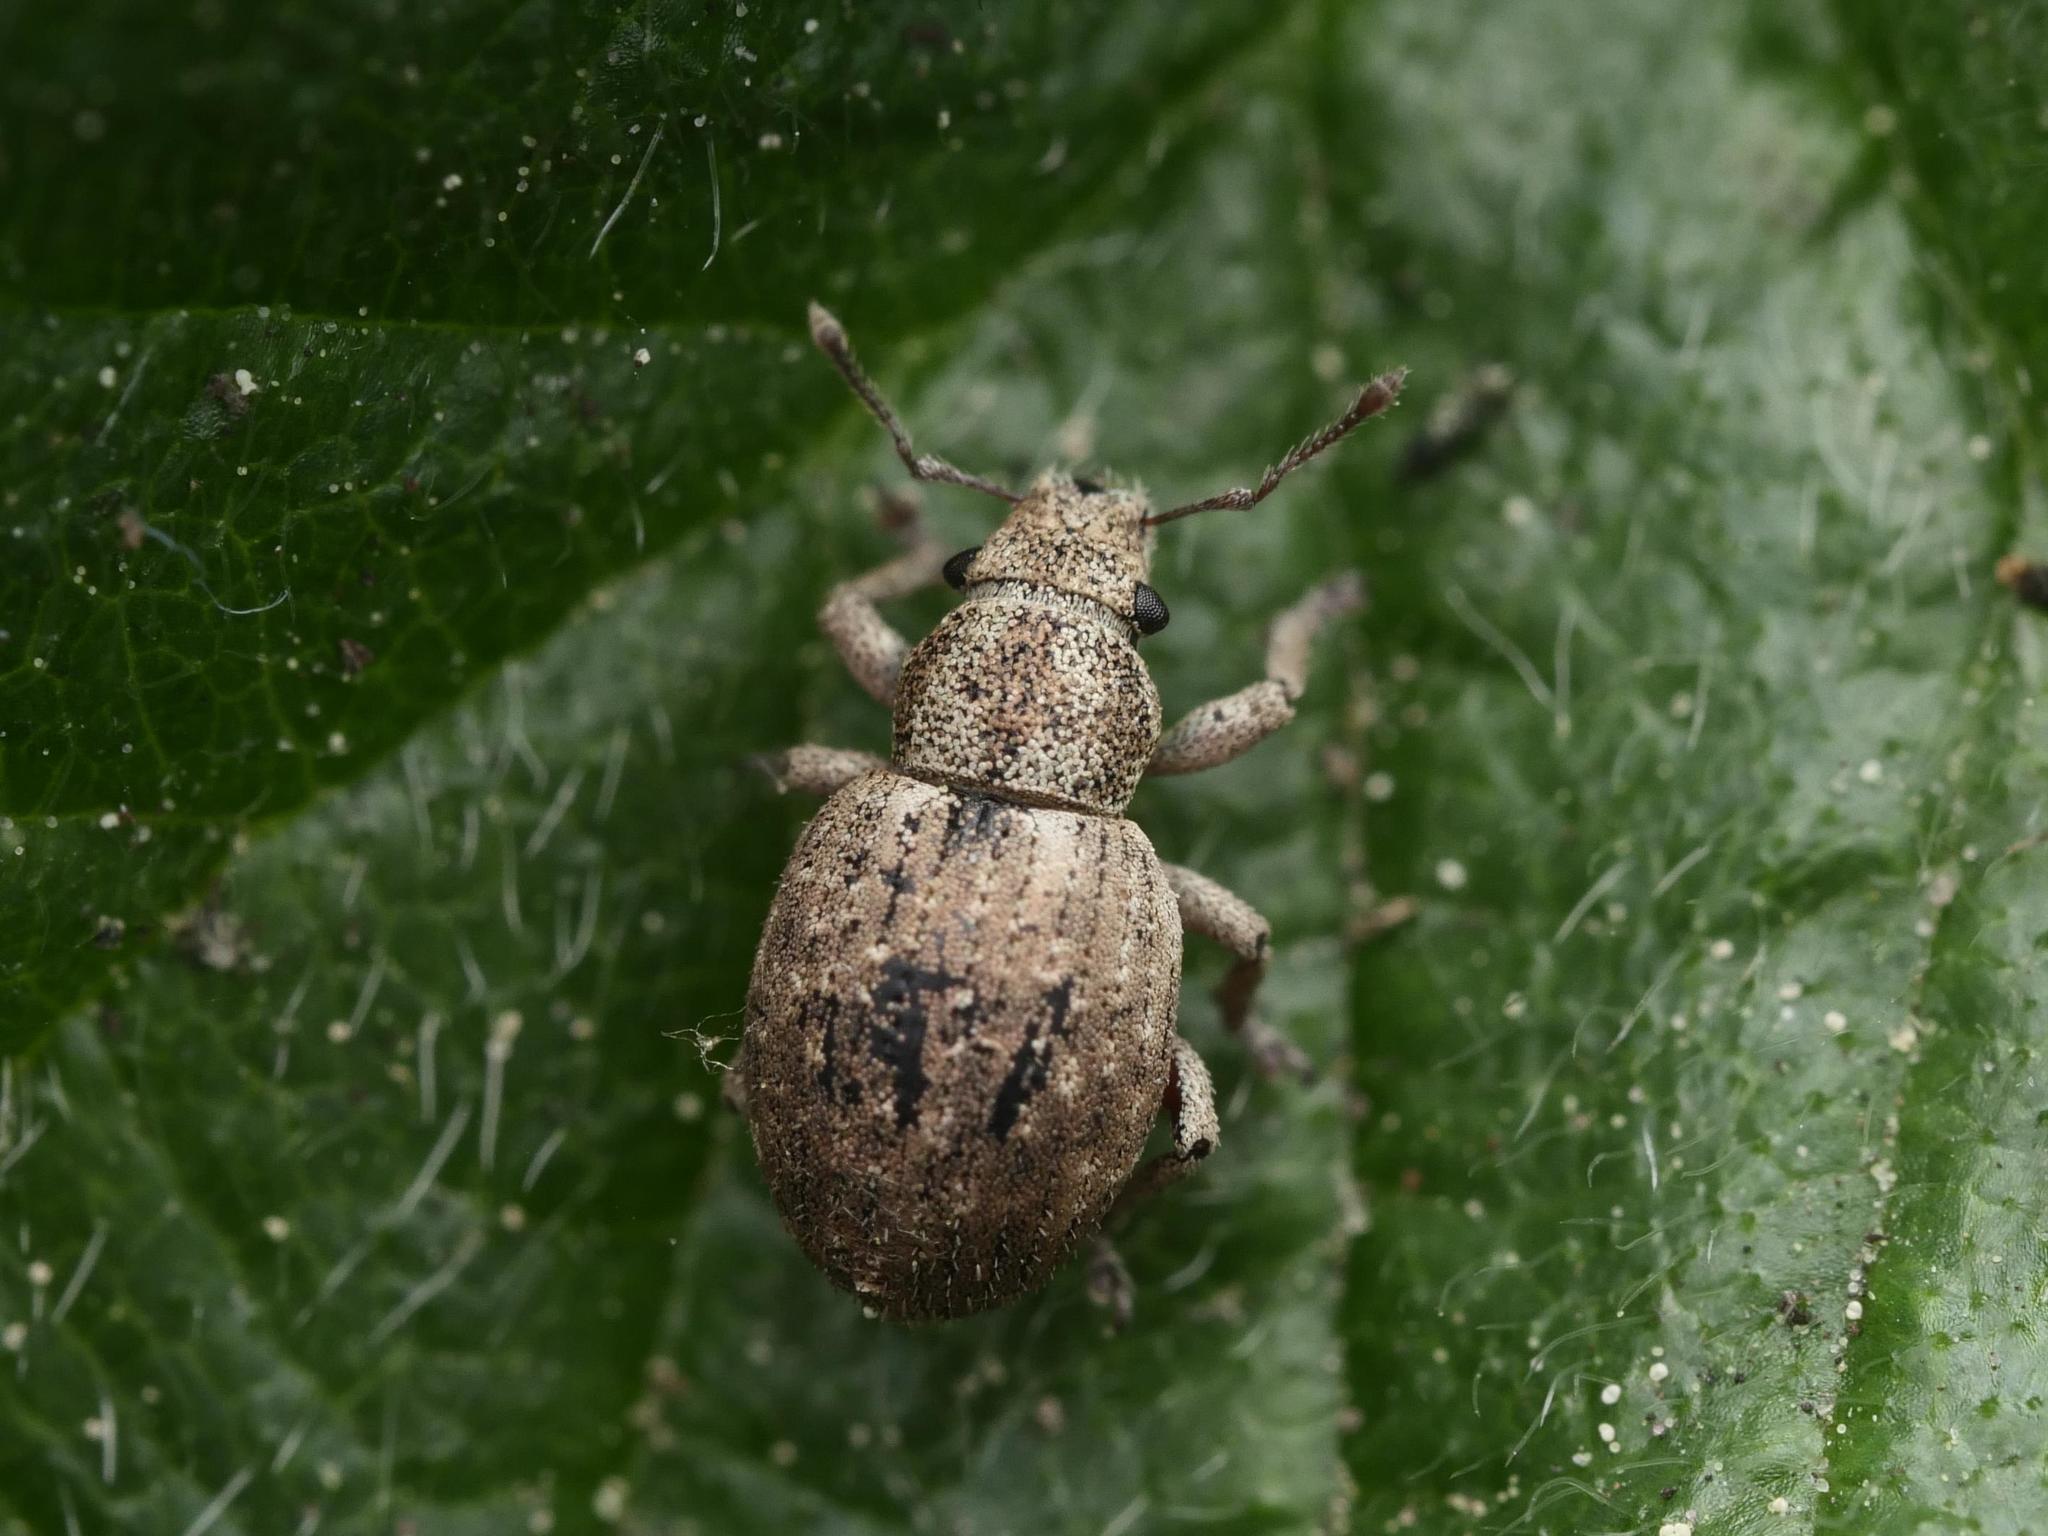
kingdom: Animalia
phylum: Arthropoda
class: Insecta
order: Coleoptera
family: Curculionidae
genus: Strophosoma
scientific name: Strophosoma capitatum
